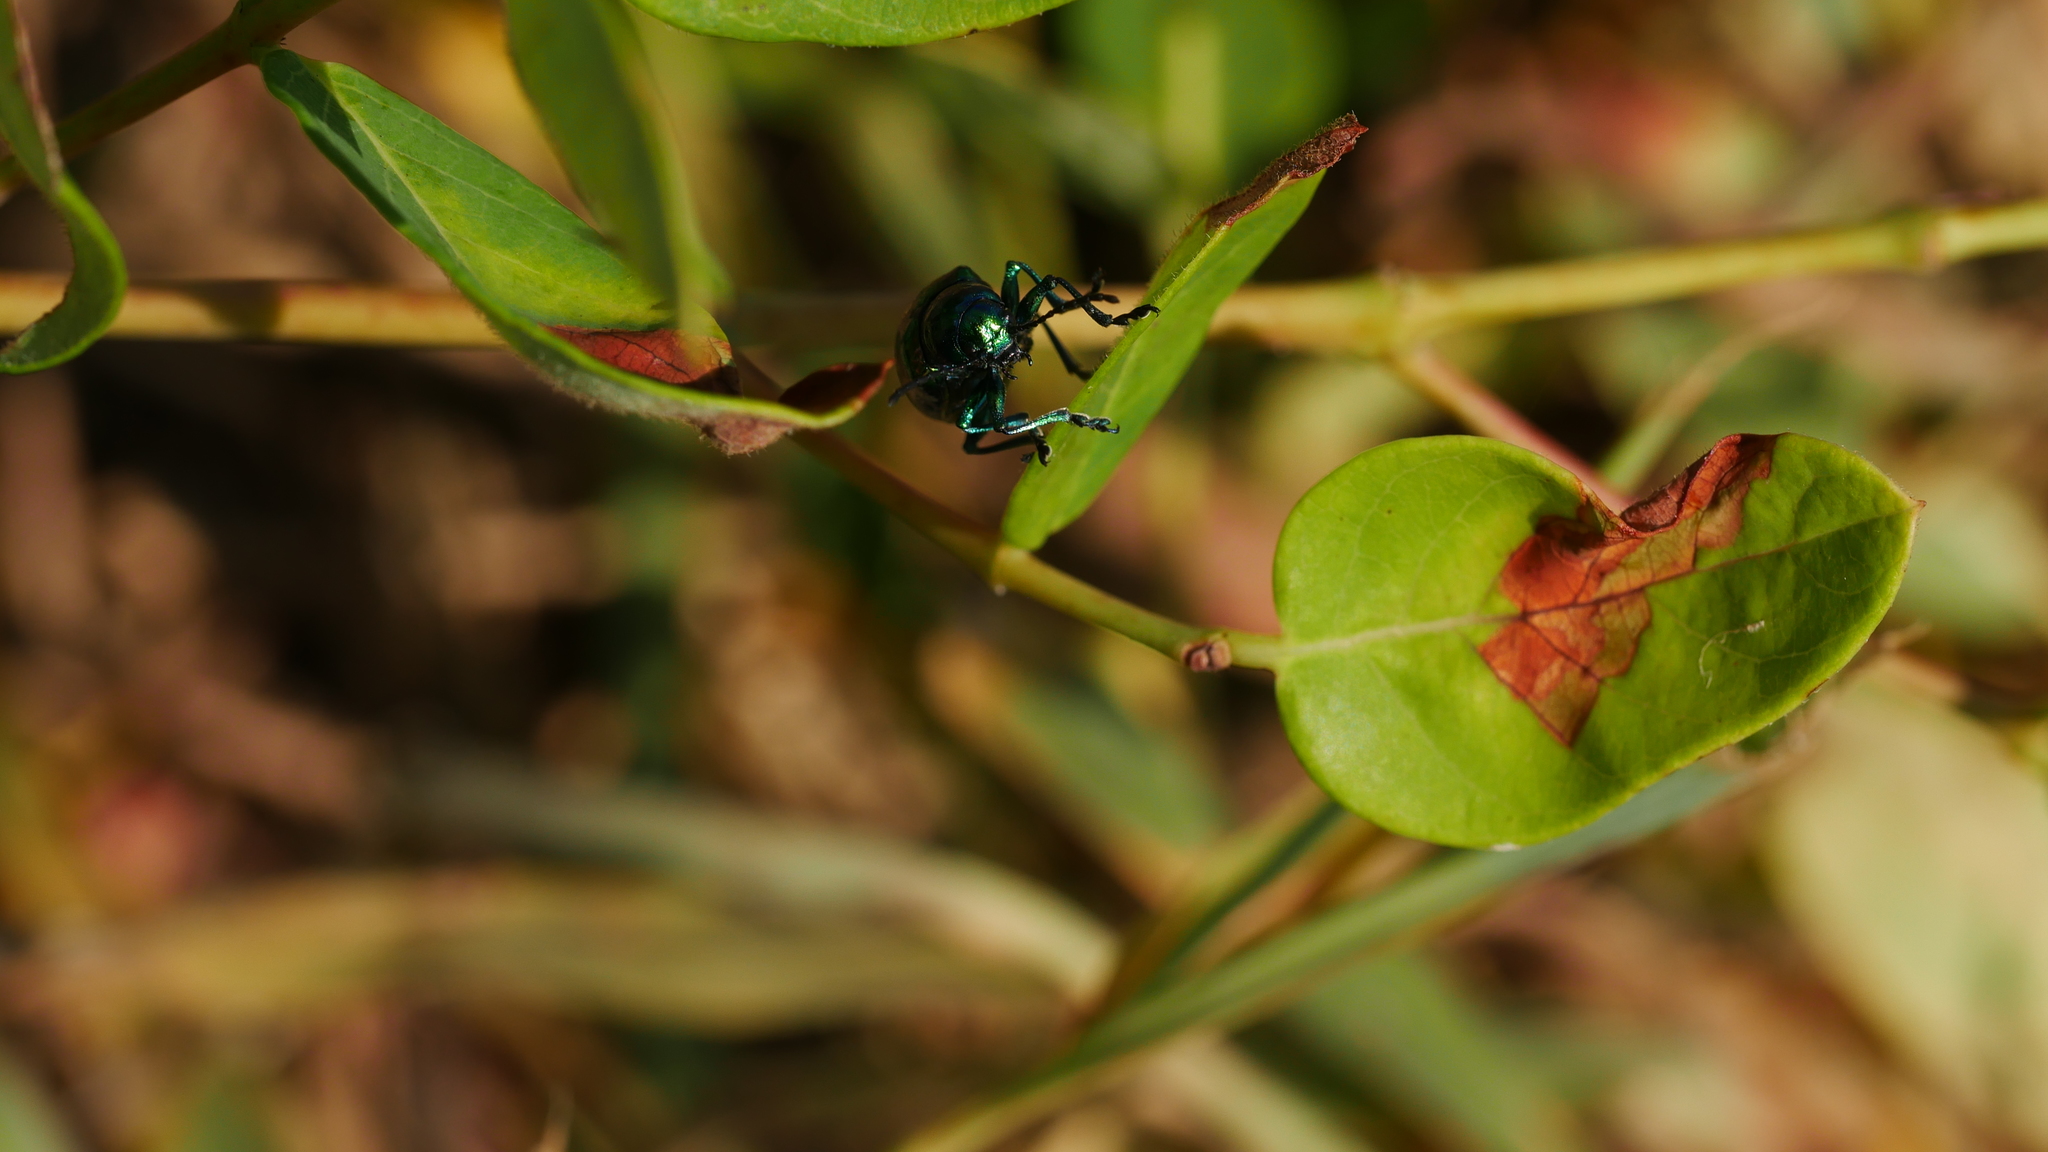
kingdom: Animalia
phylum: Arthropoda
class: Insecta
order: Coleoptera
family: Chrysomelidae
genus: Chrysochus
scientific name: Chrysochus auratus
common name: Dogbane leaf beetle
